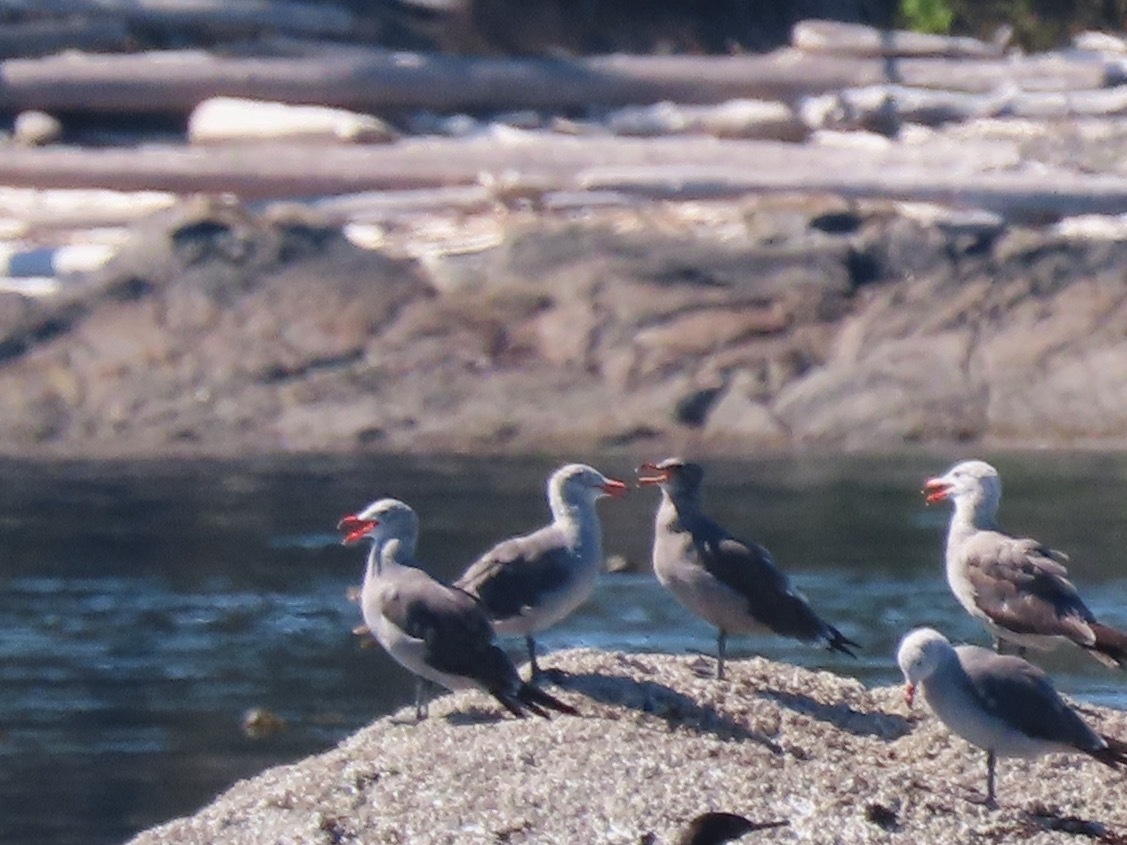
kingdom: Animalia
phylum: Chordata
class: Aves
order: Charadriiformes
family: Laridae
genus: Larus
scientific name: Larus heermanni
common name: Heermann's gull
